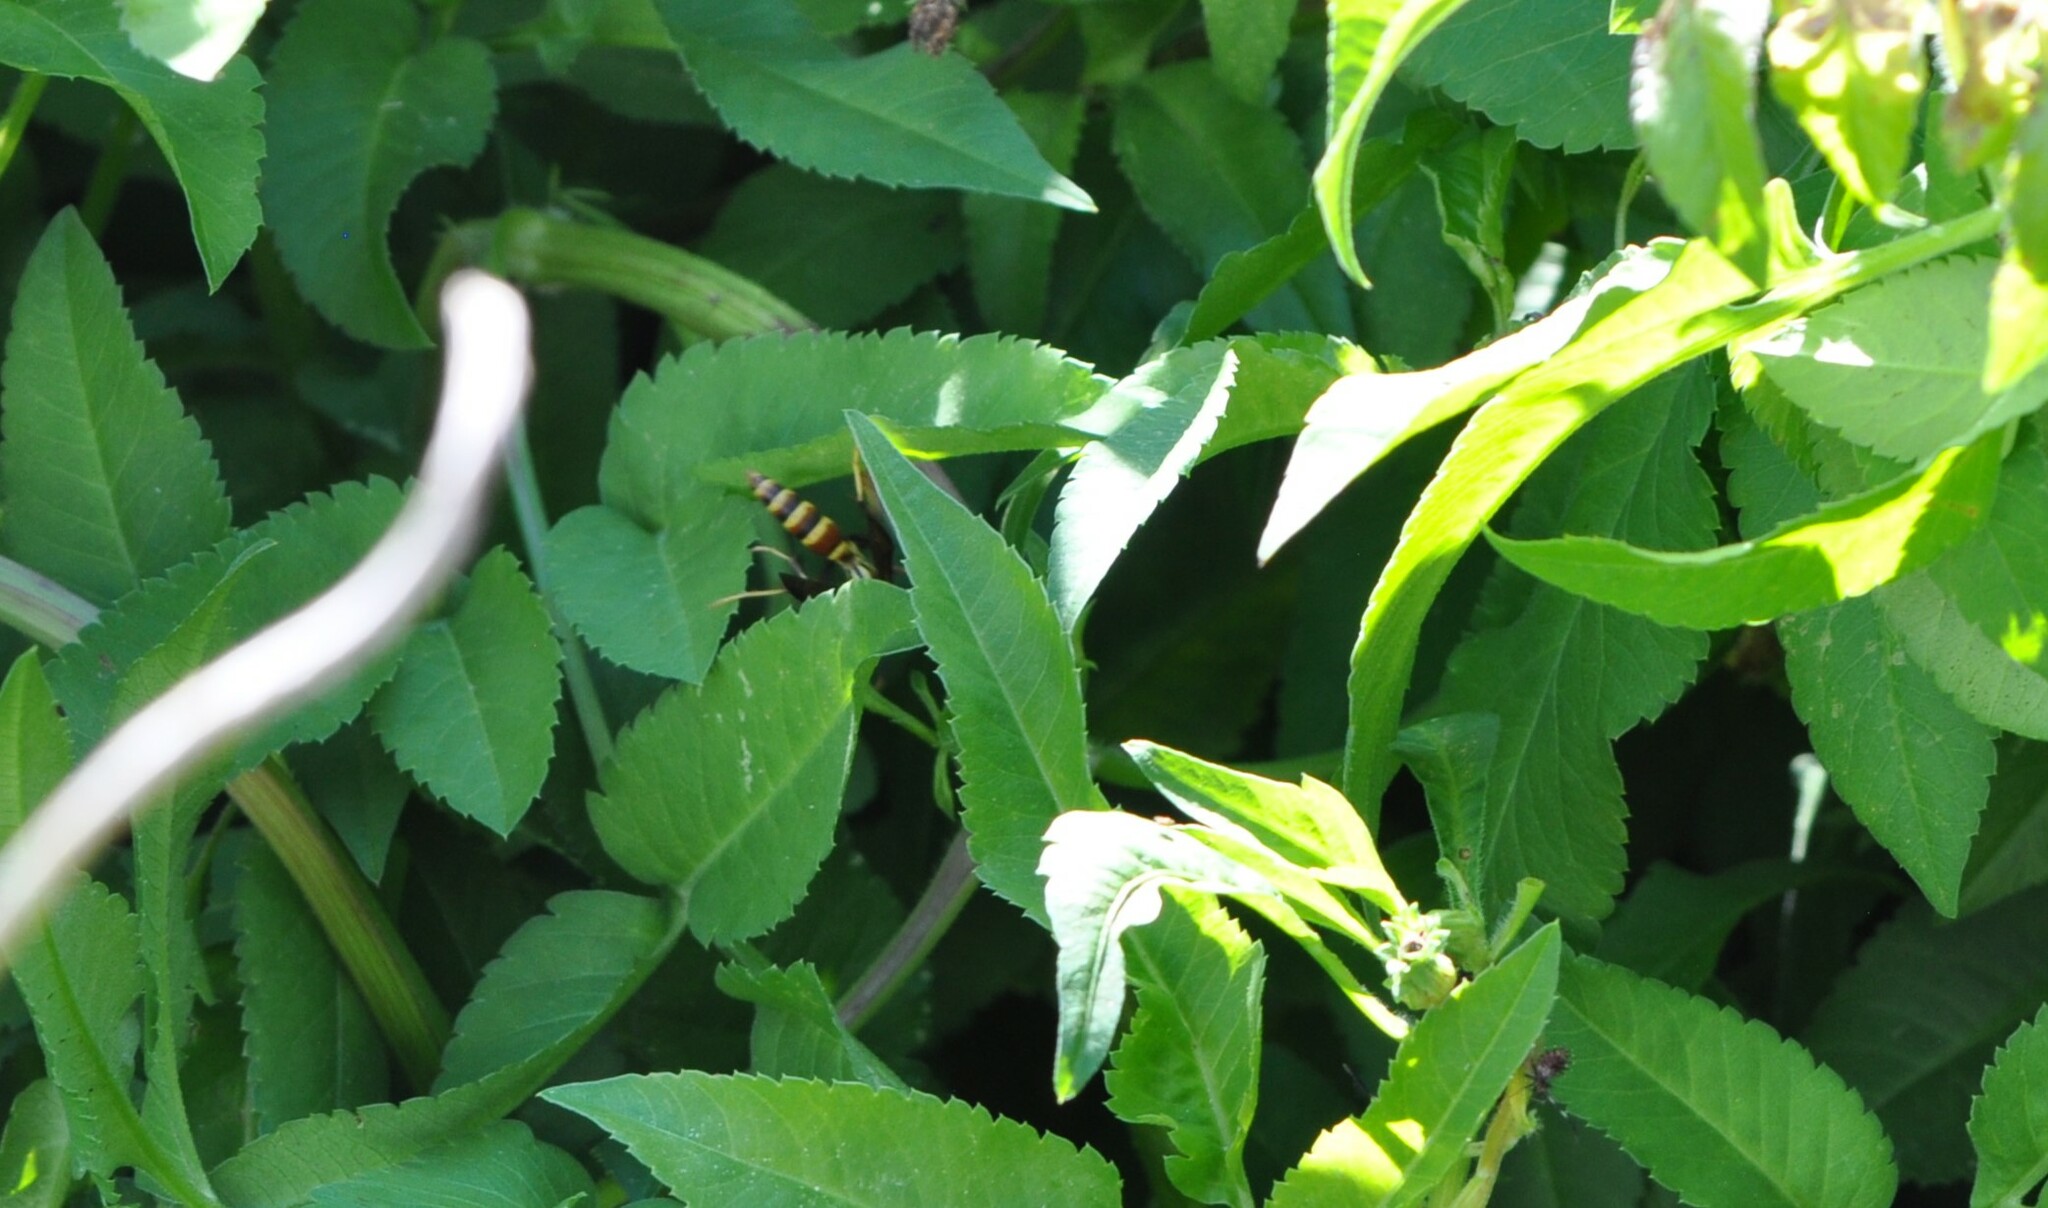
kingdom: Animalia
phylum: Arthropoda
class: Insecta
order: Hymenoptera
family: Eumenidae
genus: Polistes
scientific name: Polistes exclamans
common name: Paper wasp
